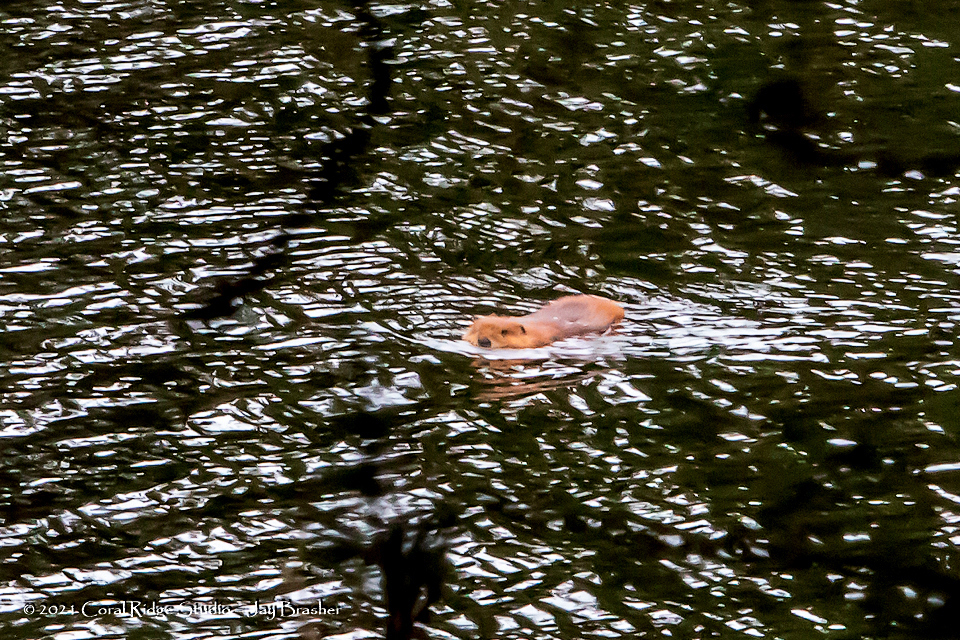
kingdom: Animalia
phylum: Chordata
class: Mammalia
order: Rodentia
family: Castoridae
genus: Castor
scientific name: Castor canadensis
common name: American beaver
